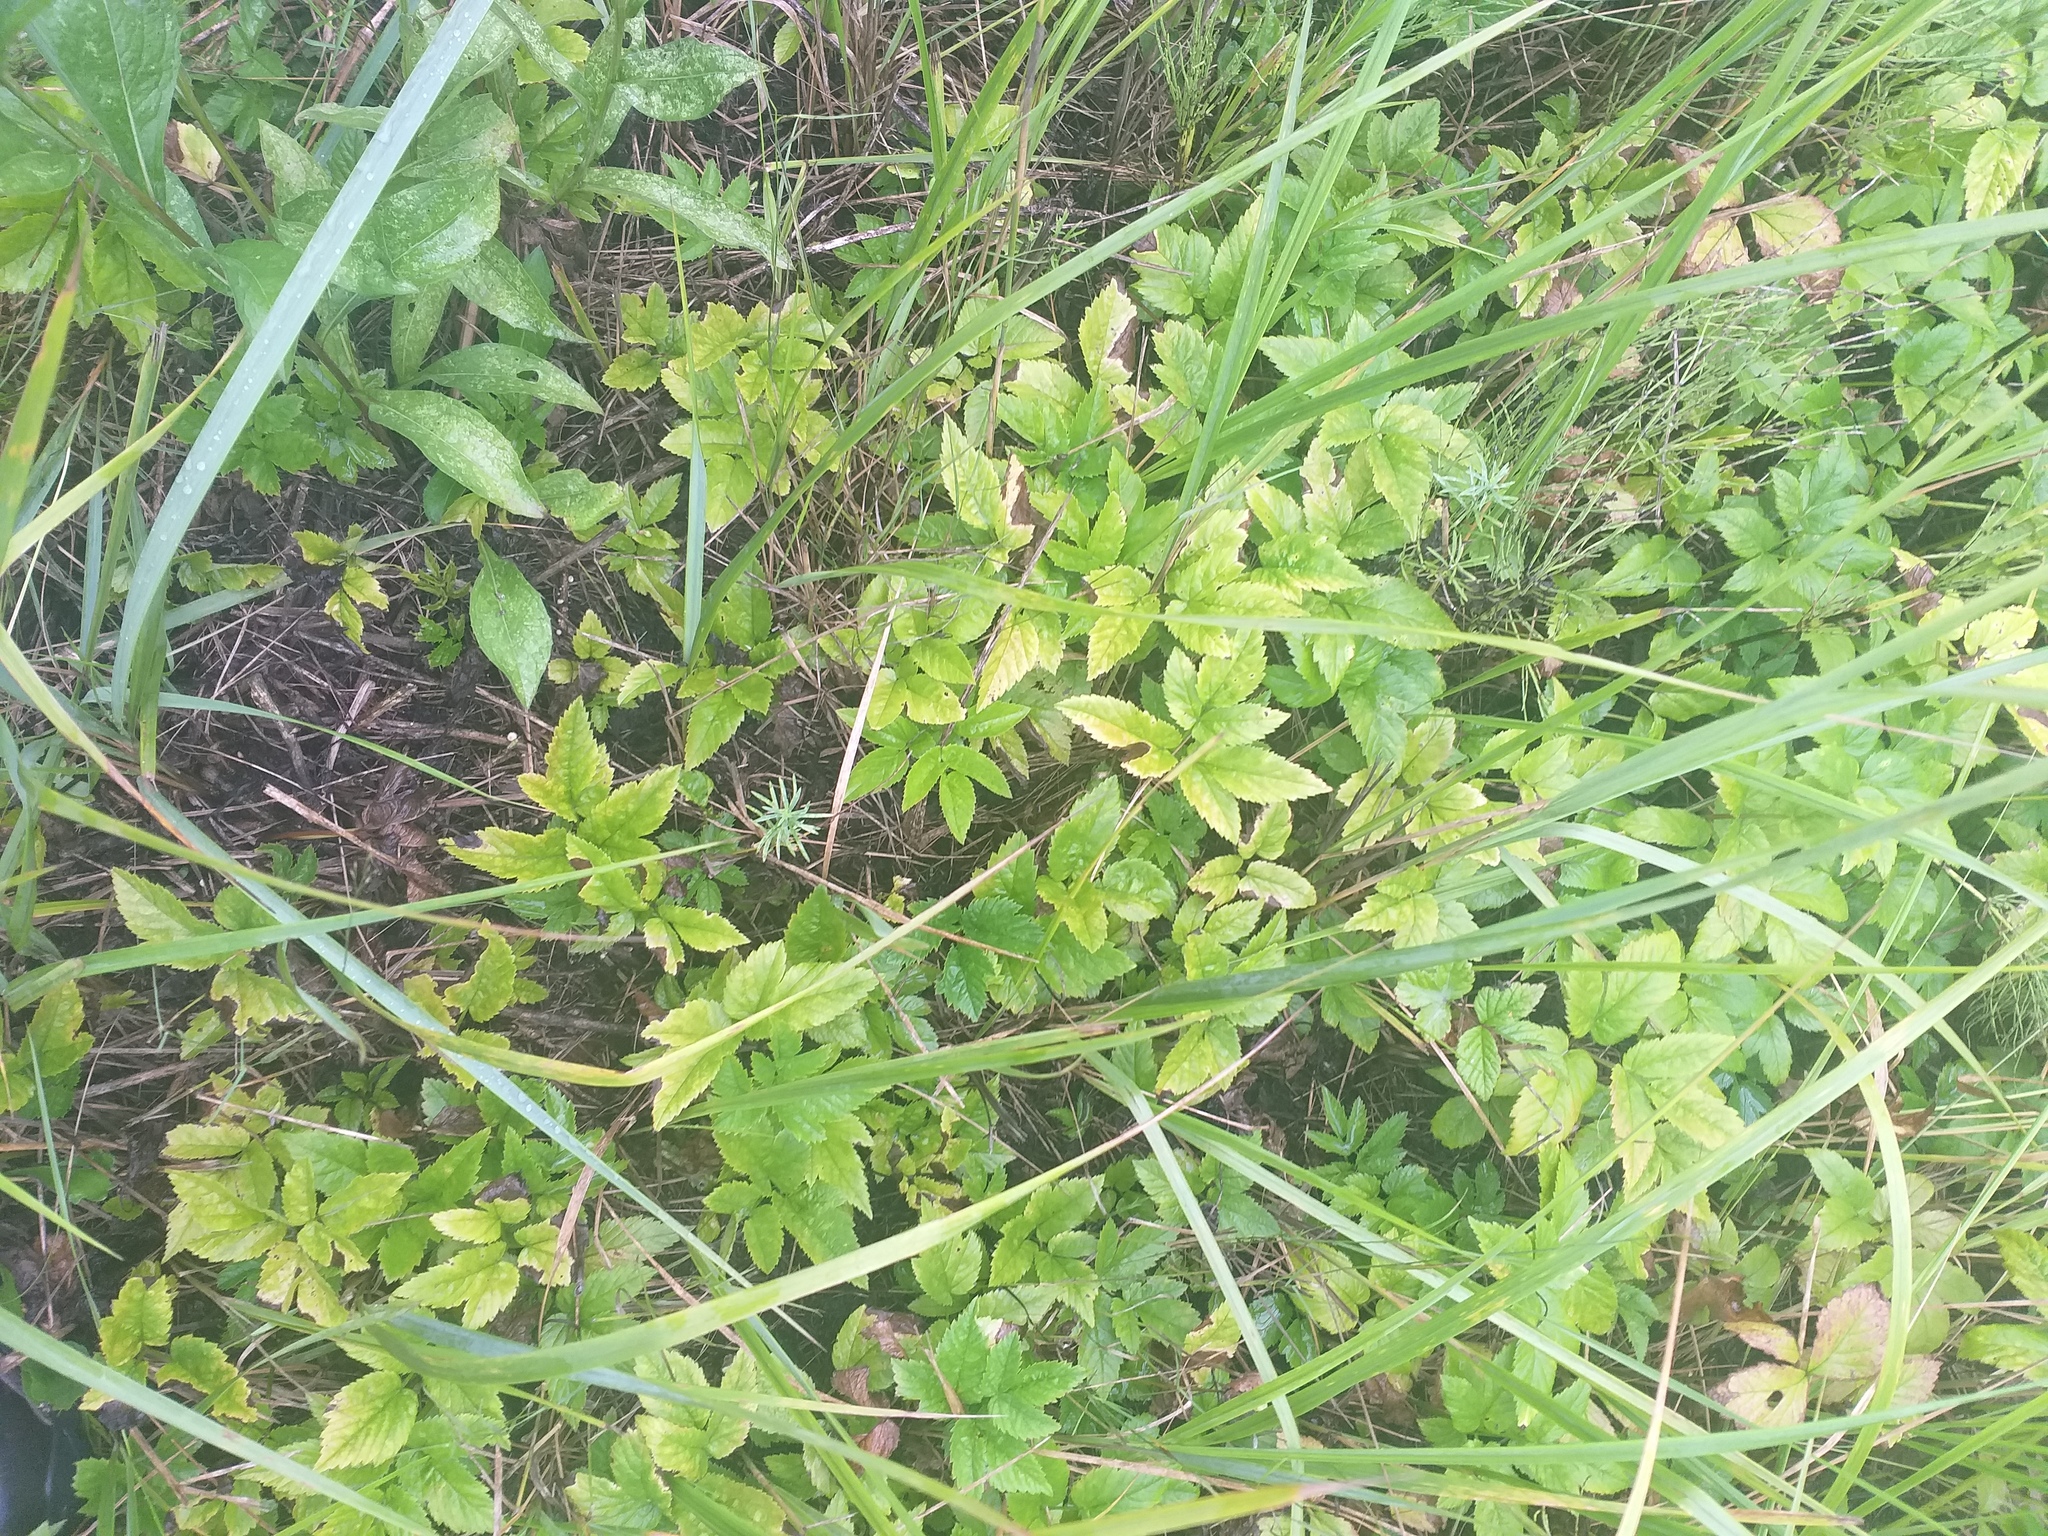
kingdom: Plantae
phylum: Tracheophyta
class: Magnoliopsida
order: Apiales
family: Apiaceae
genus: Aegopodium
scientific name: Aegopodium podagraria
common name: Ground-elder
